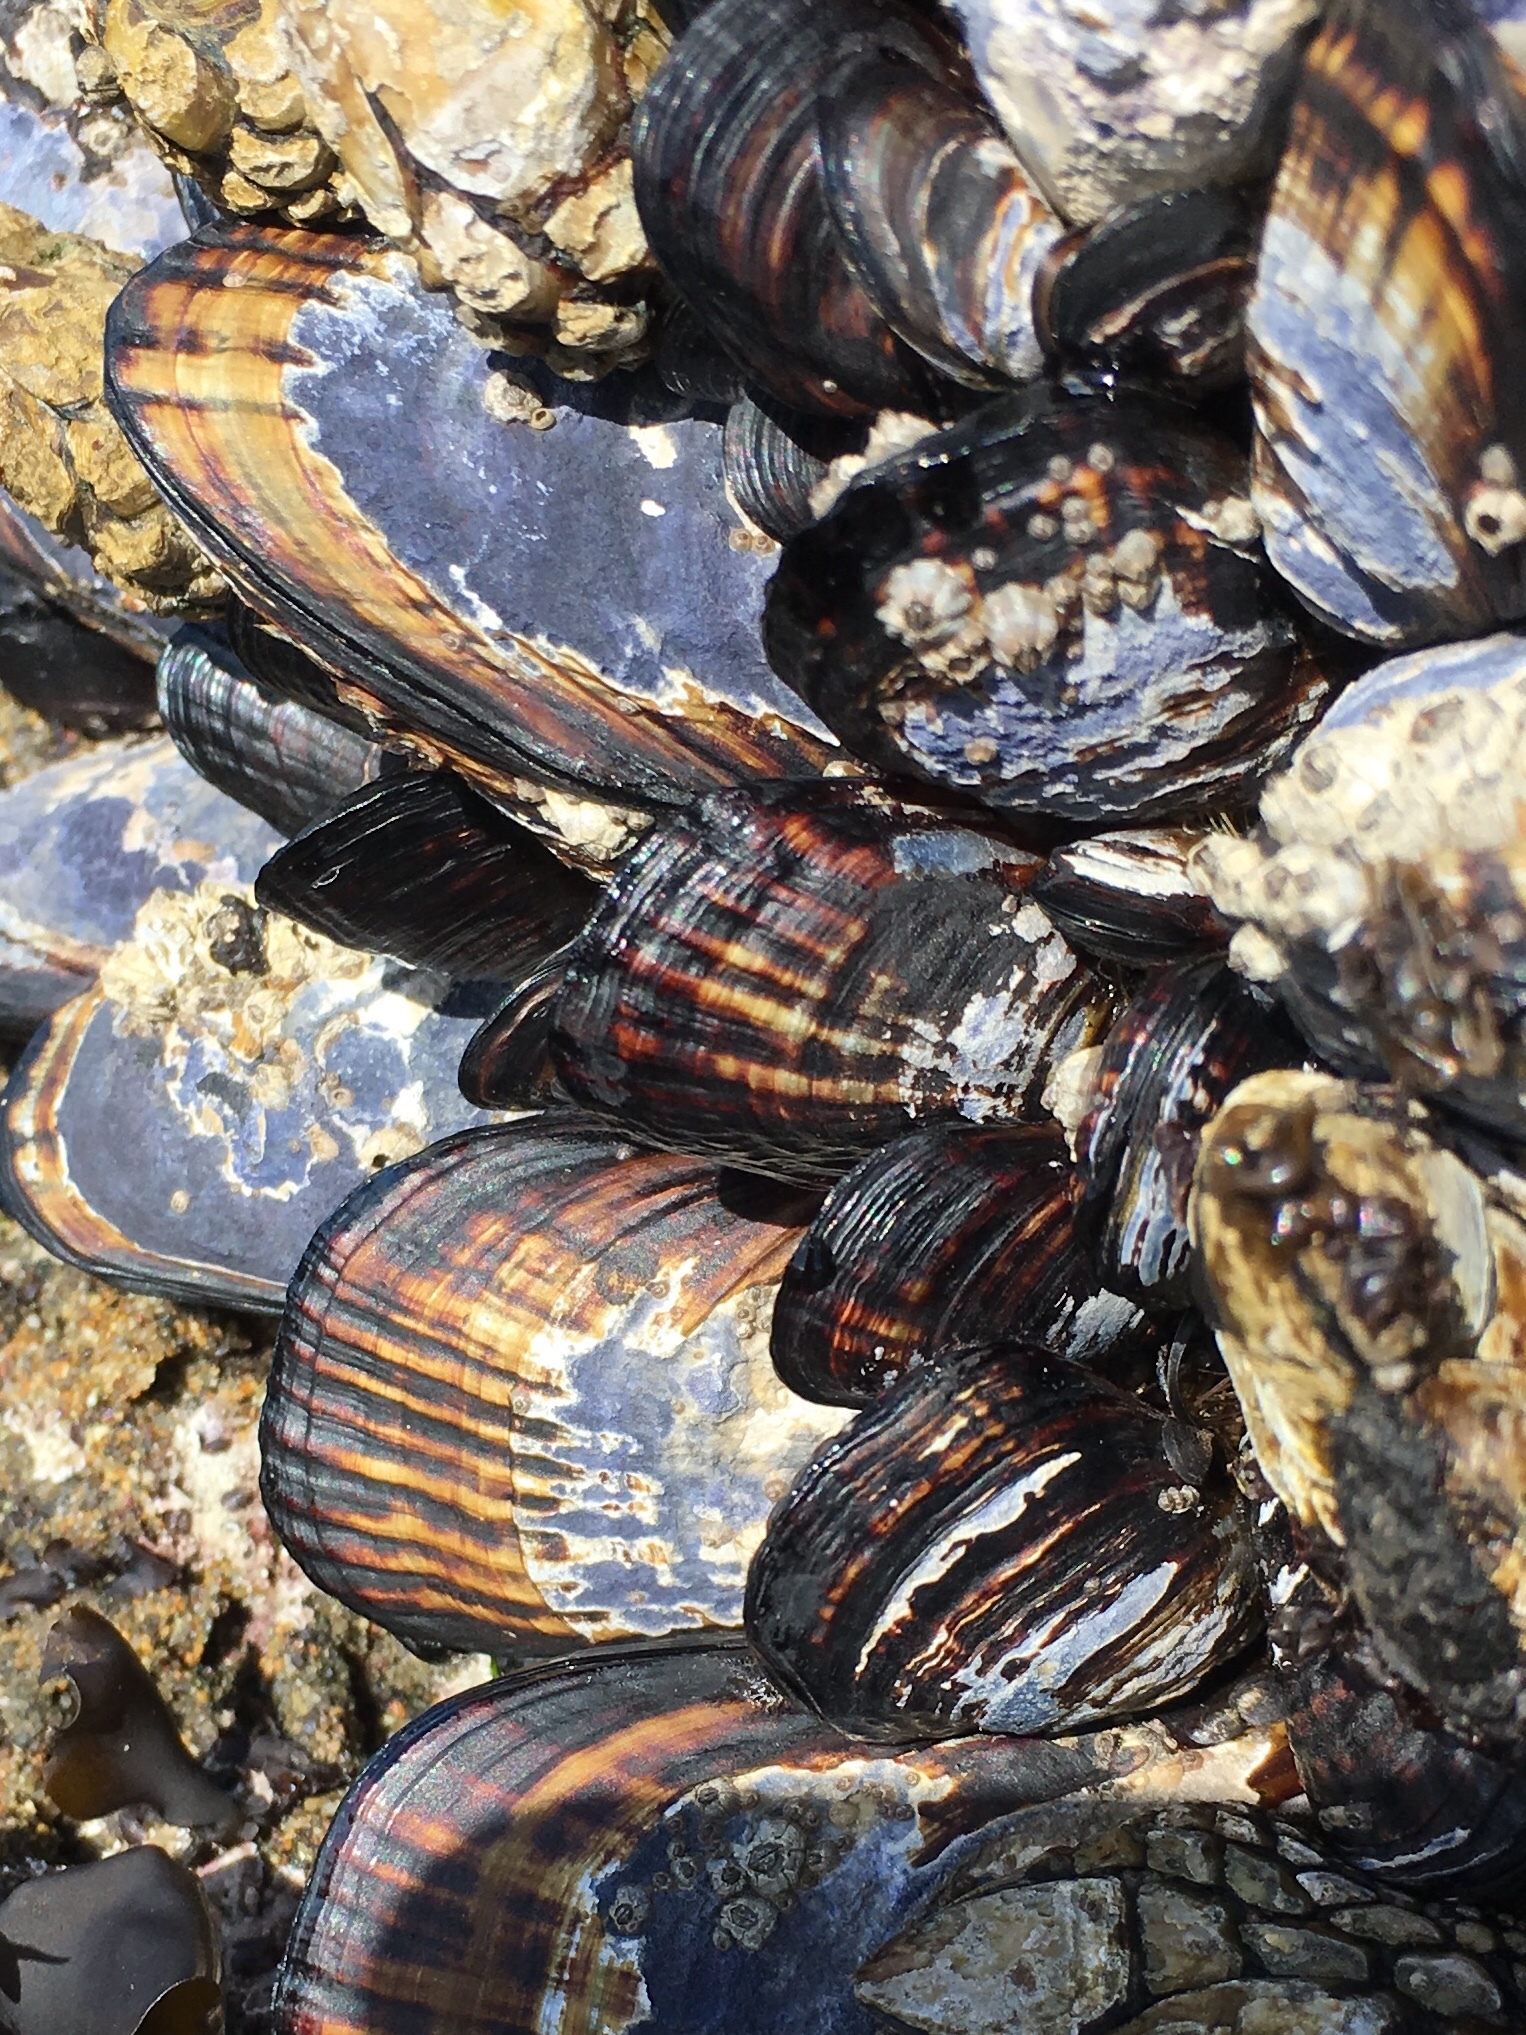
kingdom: Animalia
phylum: Mollusca
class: Bivalvia
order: Mytilida
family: Mytilidae
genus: Mytilus
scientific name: Mytilus californianus
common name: California mussel
